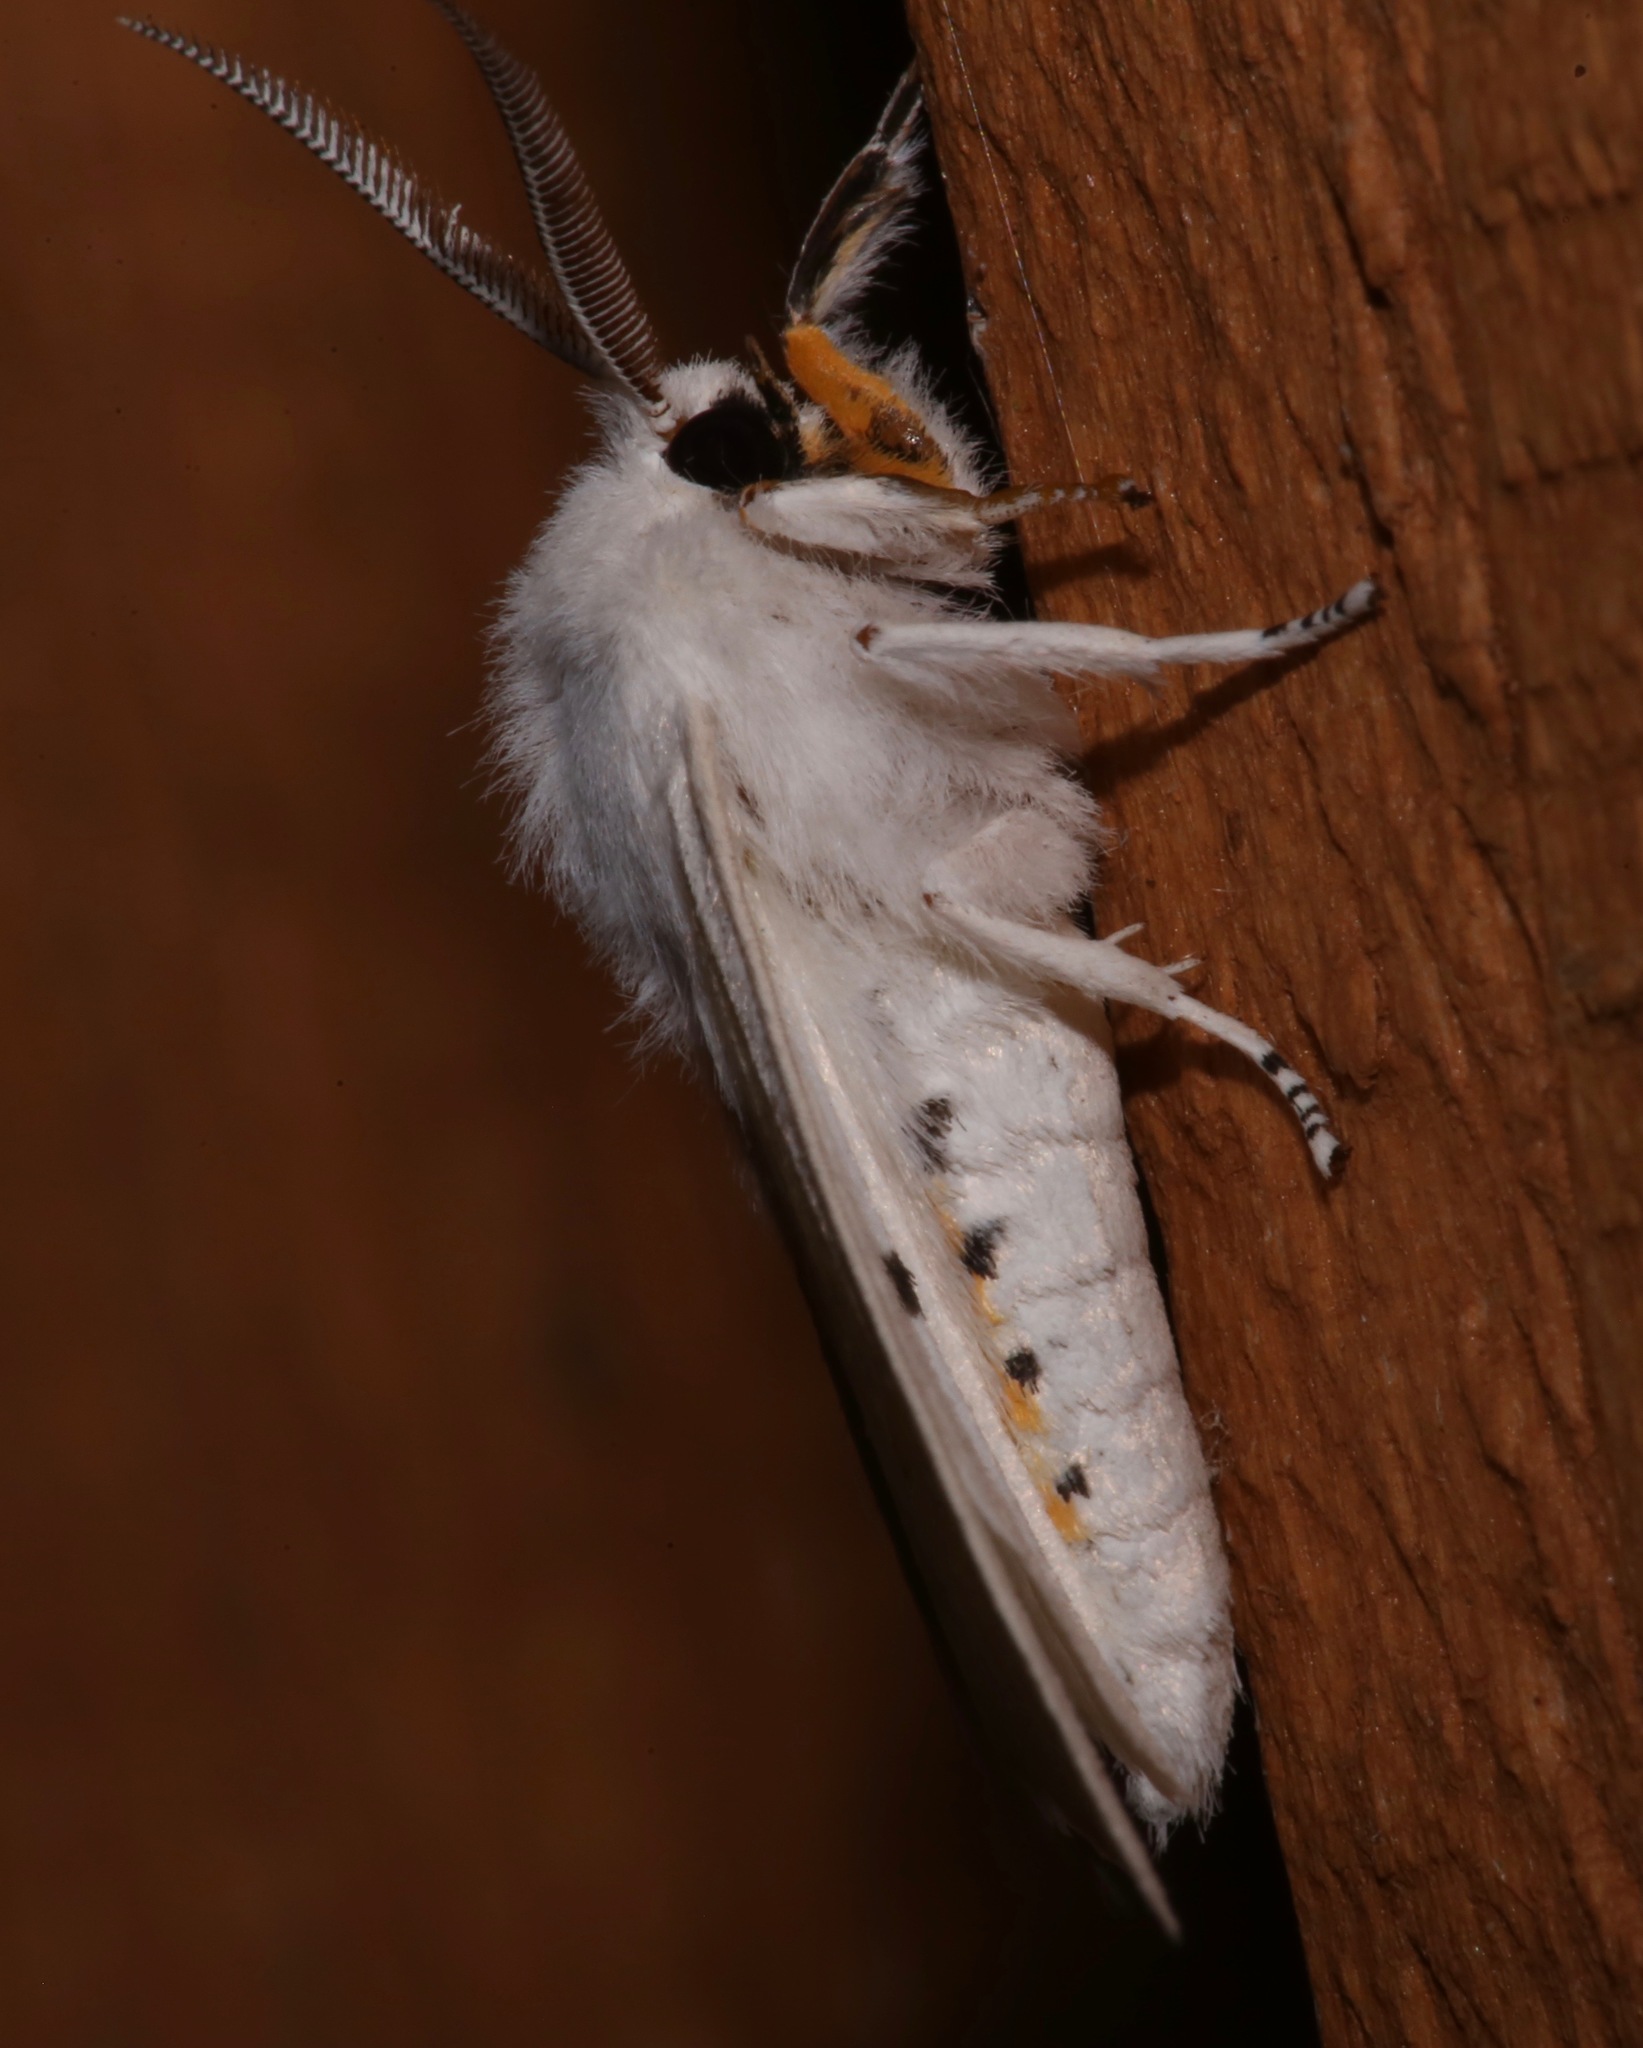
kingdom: Animalia
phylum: Arthropoda
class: Insecta
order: Lepidoptera
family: Erebidae
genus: Spilosoma
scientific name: Spilosoma virginica
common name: Virginia tiger moth
